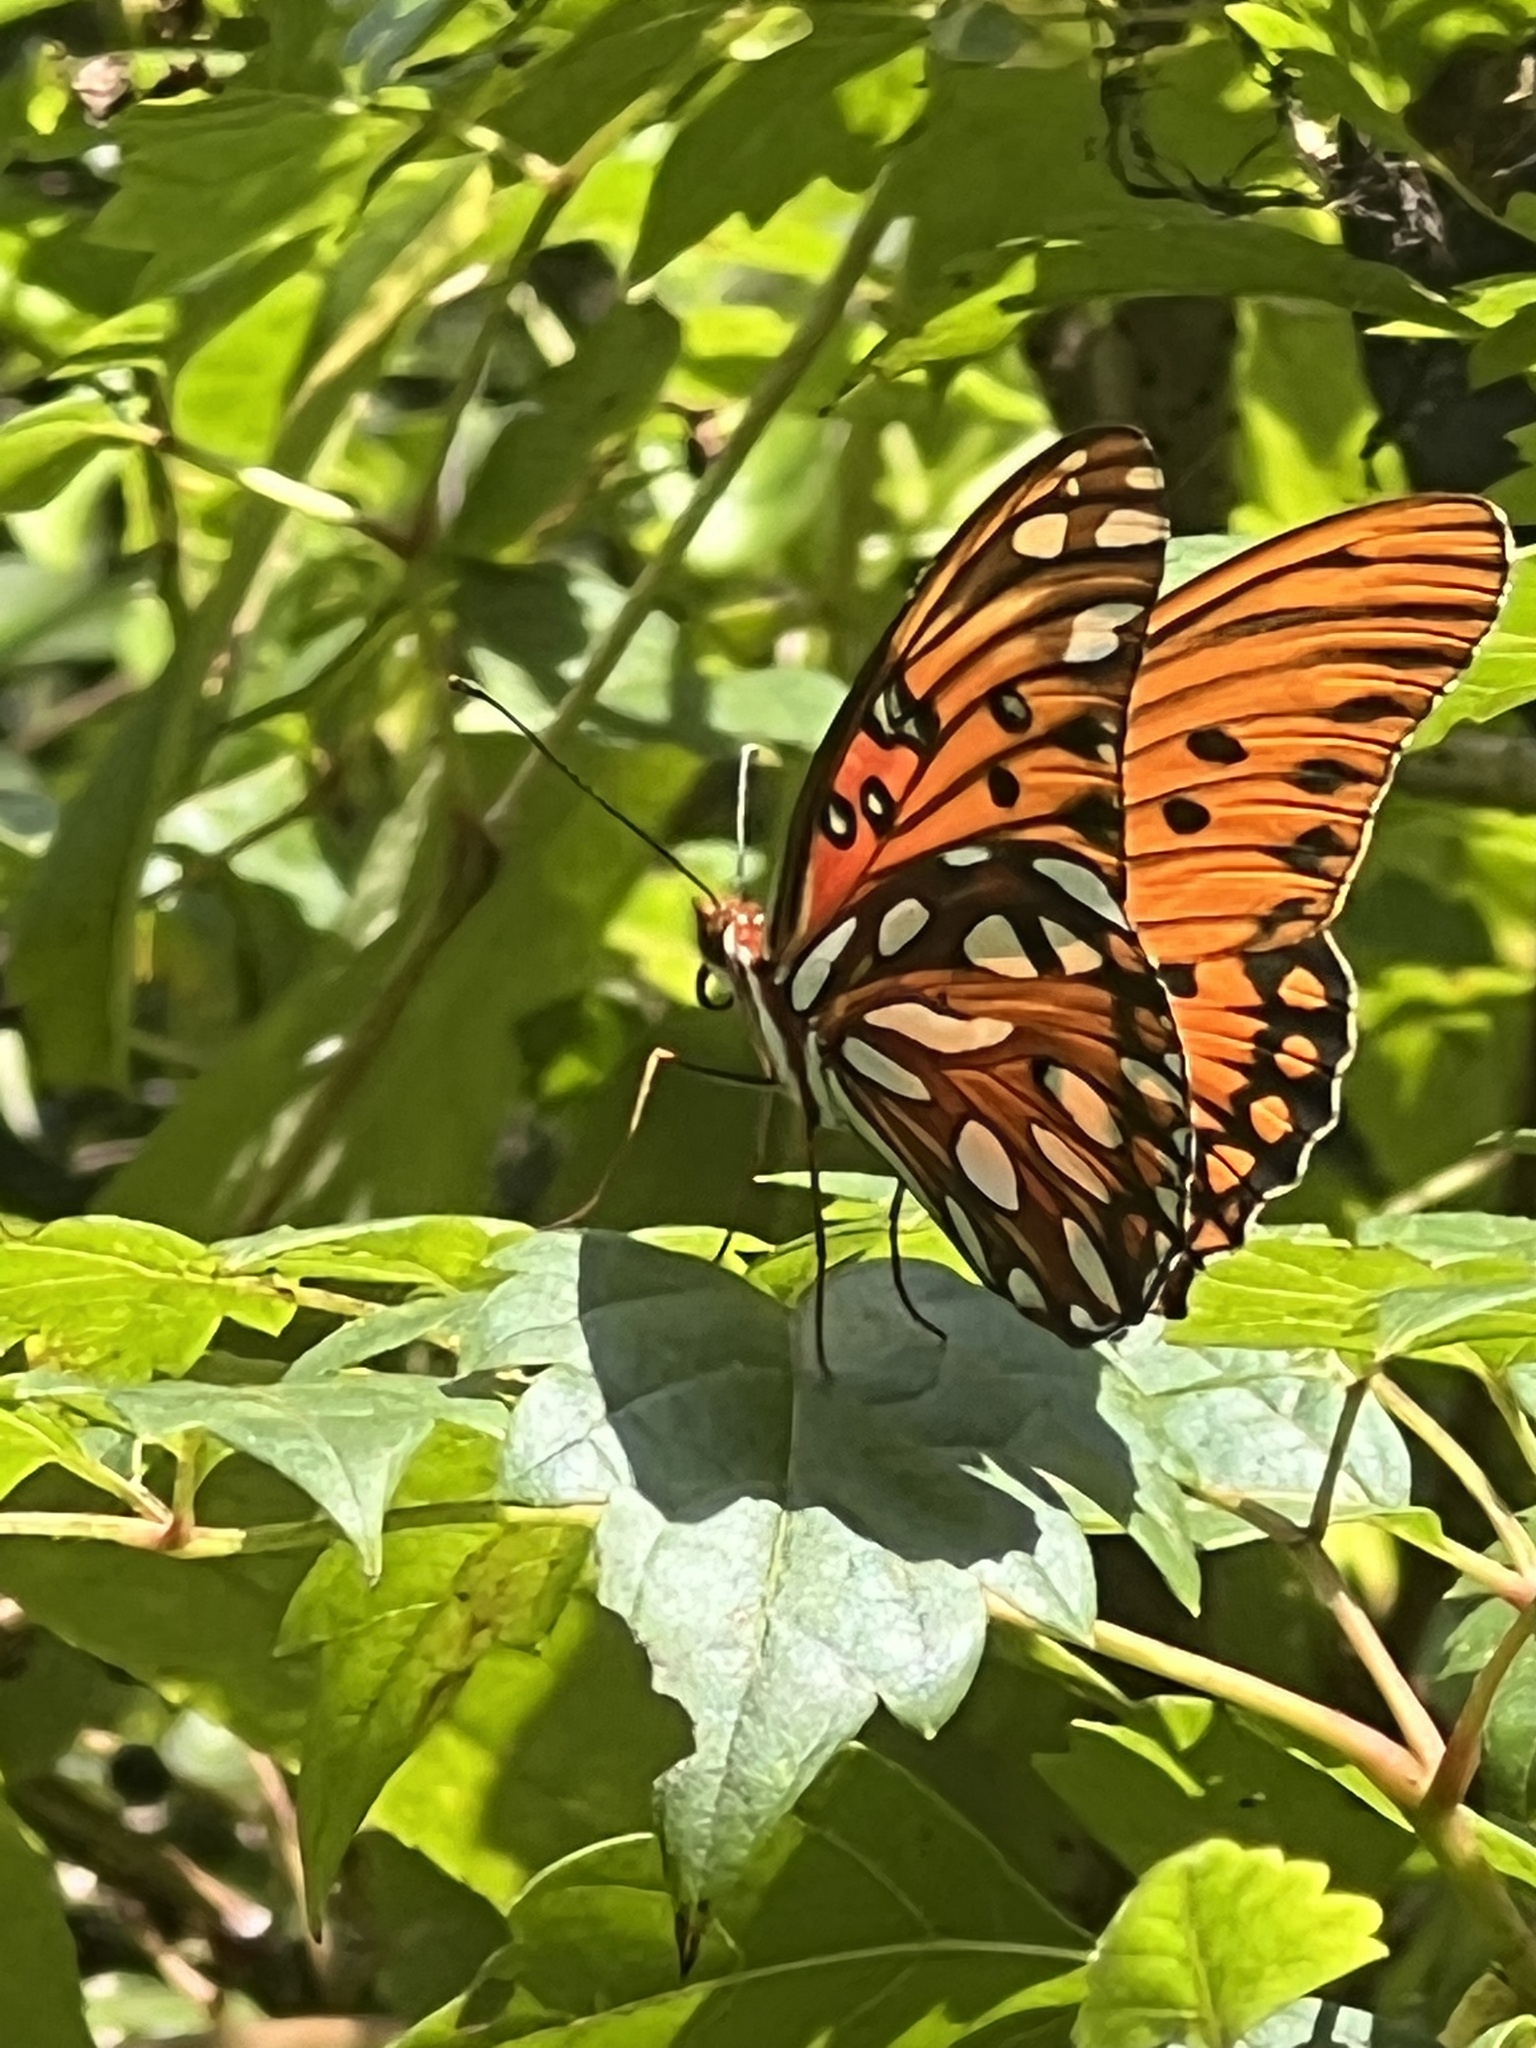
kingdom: Animalia
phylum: Arthropoda
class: Insecta
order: Lepidoptera
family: Nymphalidae
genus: Dione
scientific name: Dione vanillae
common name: Gulf fritillary
